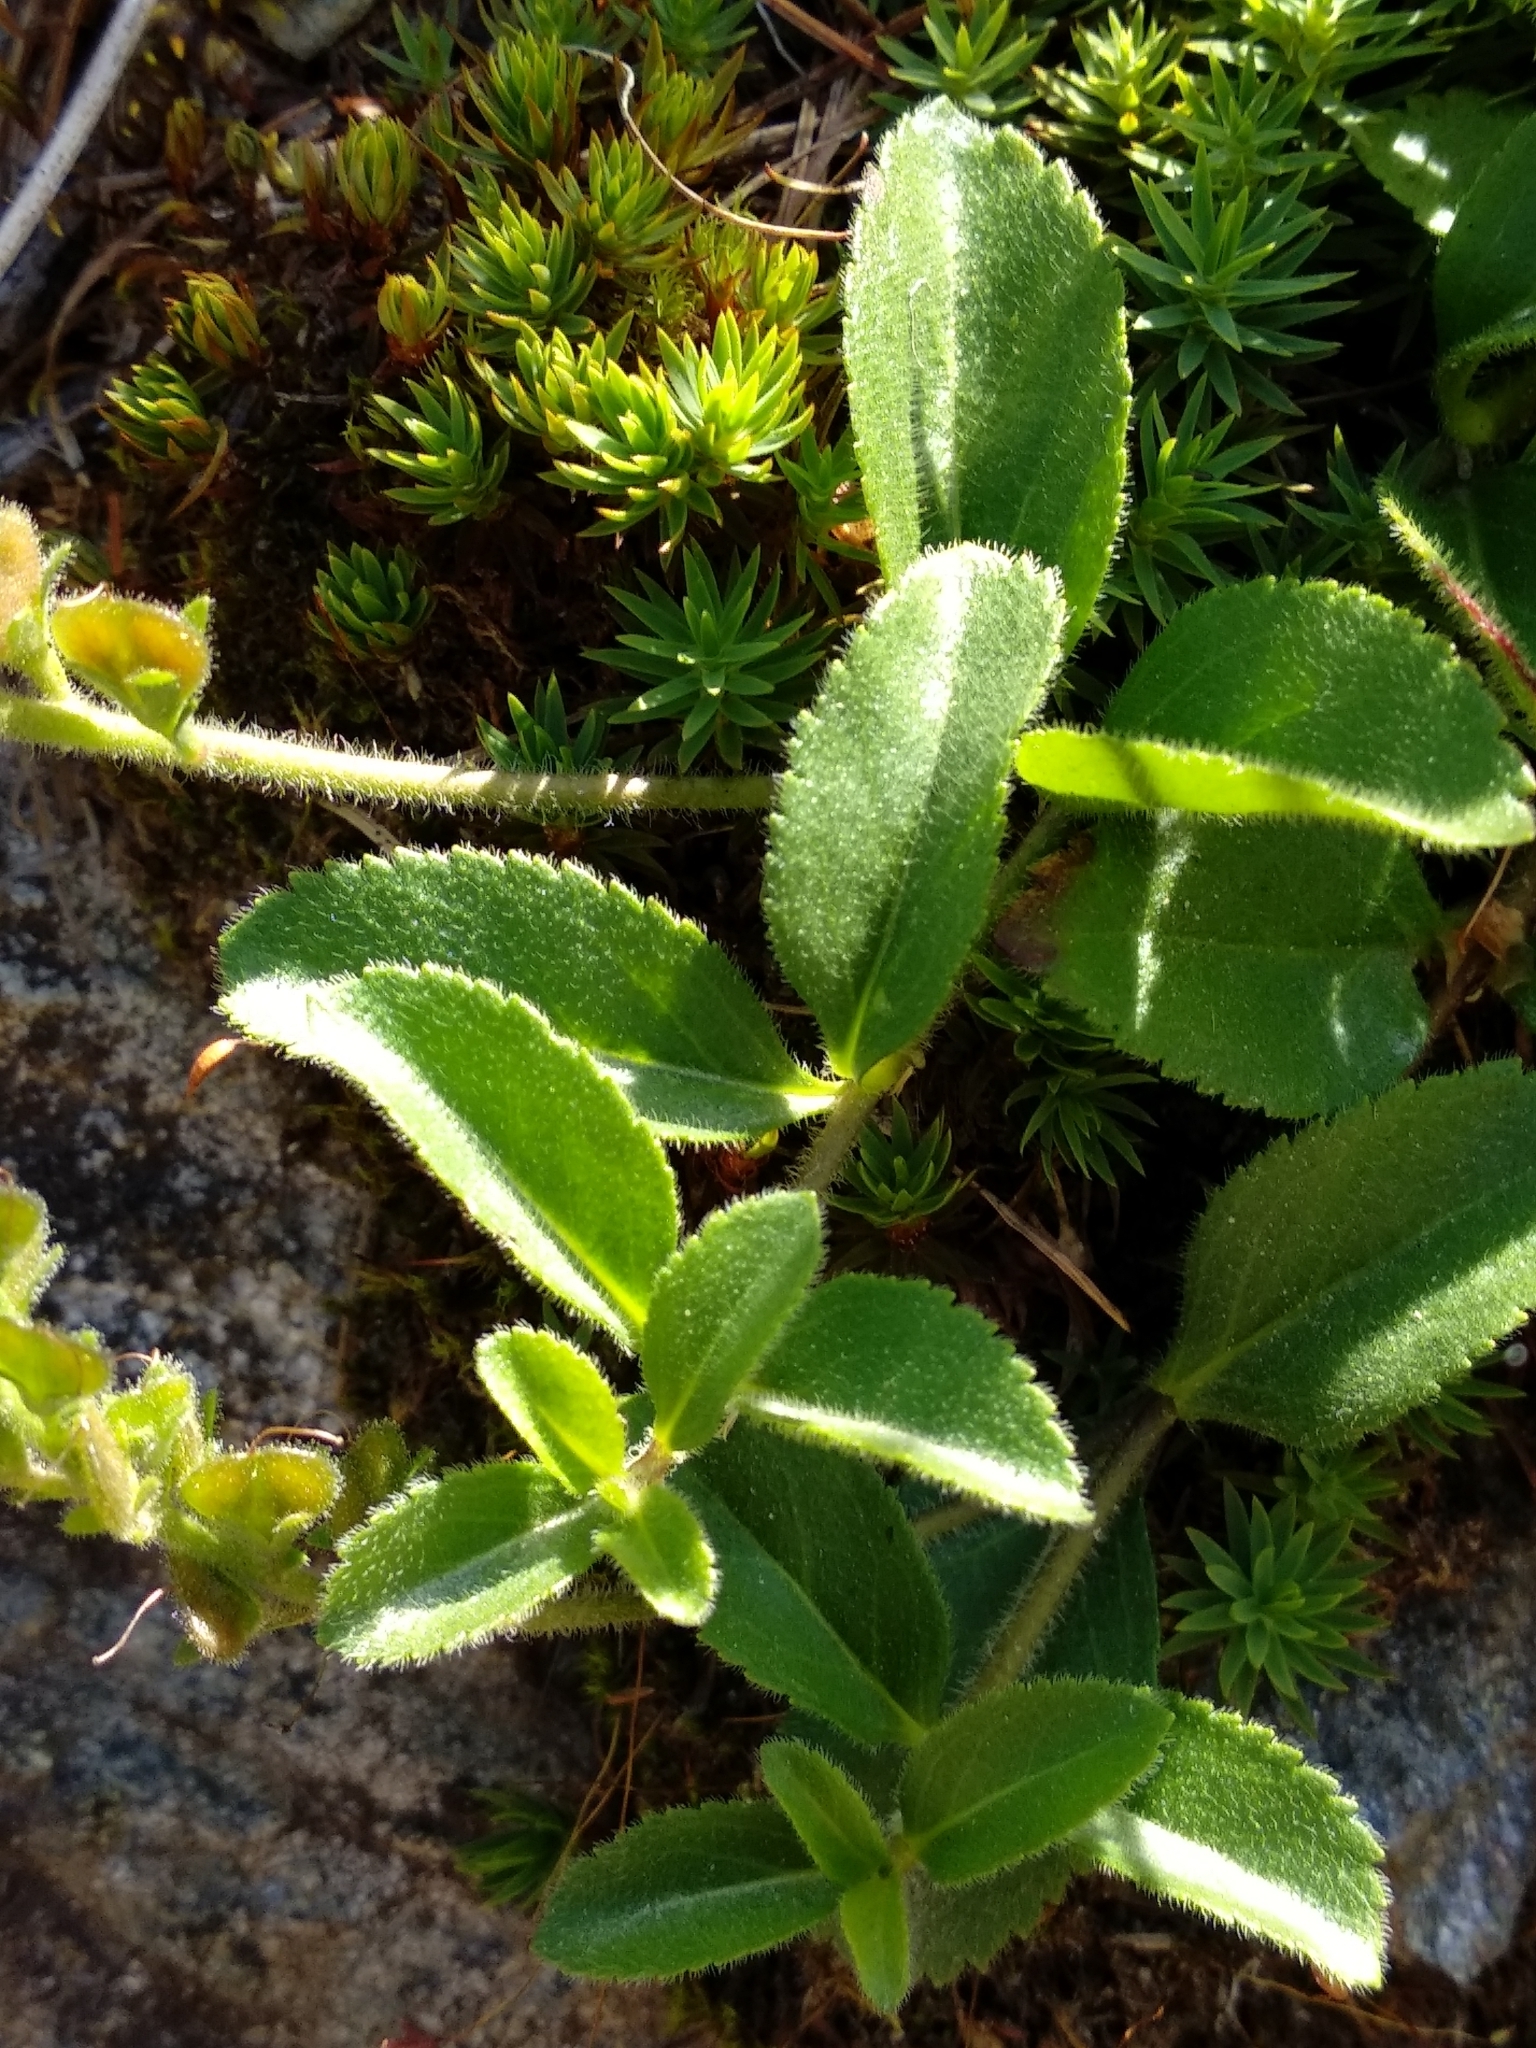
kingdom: Plantae
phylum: Tracheophyta
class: Magnoliopsida
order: Lamiales
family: Plantaginaceae
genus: Veronica
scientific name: Veronica officinalis
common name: Common speedwell
